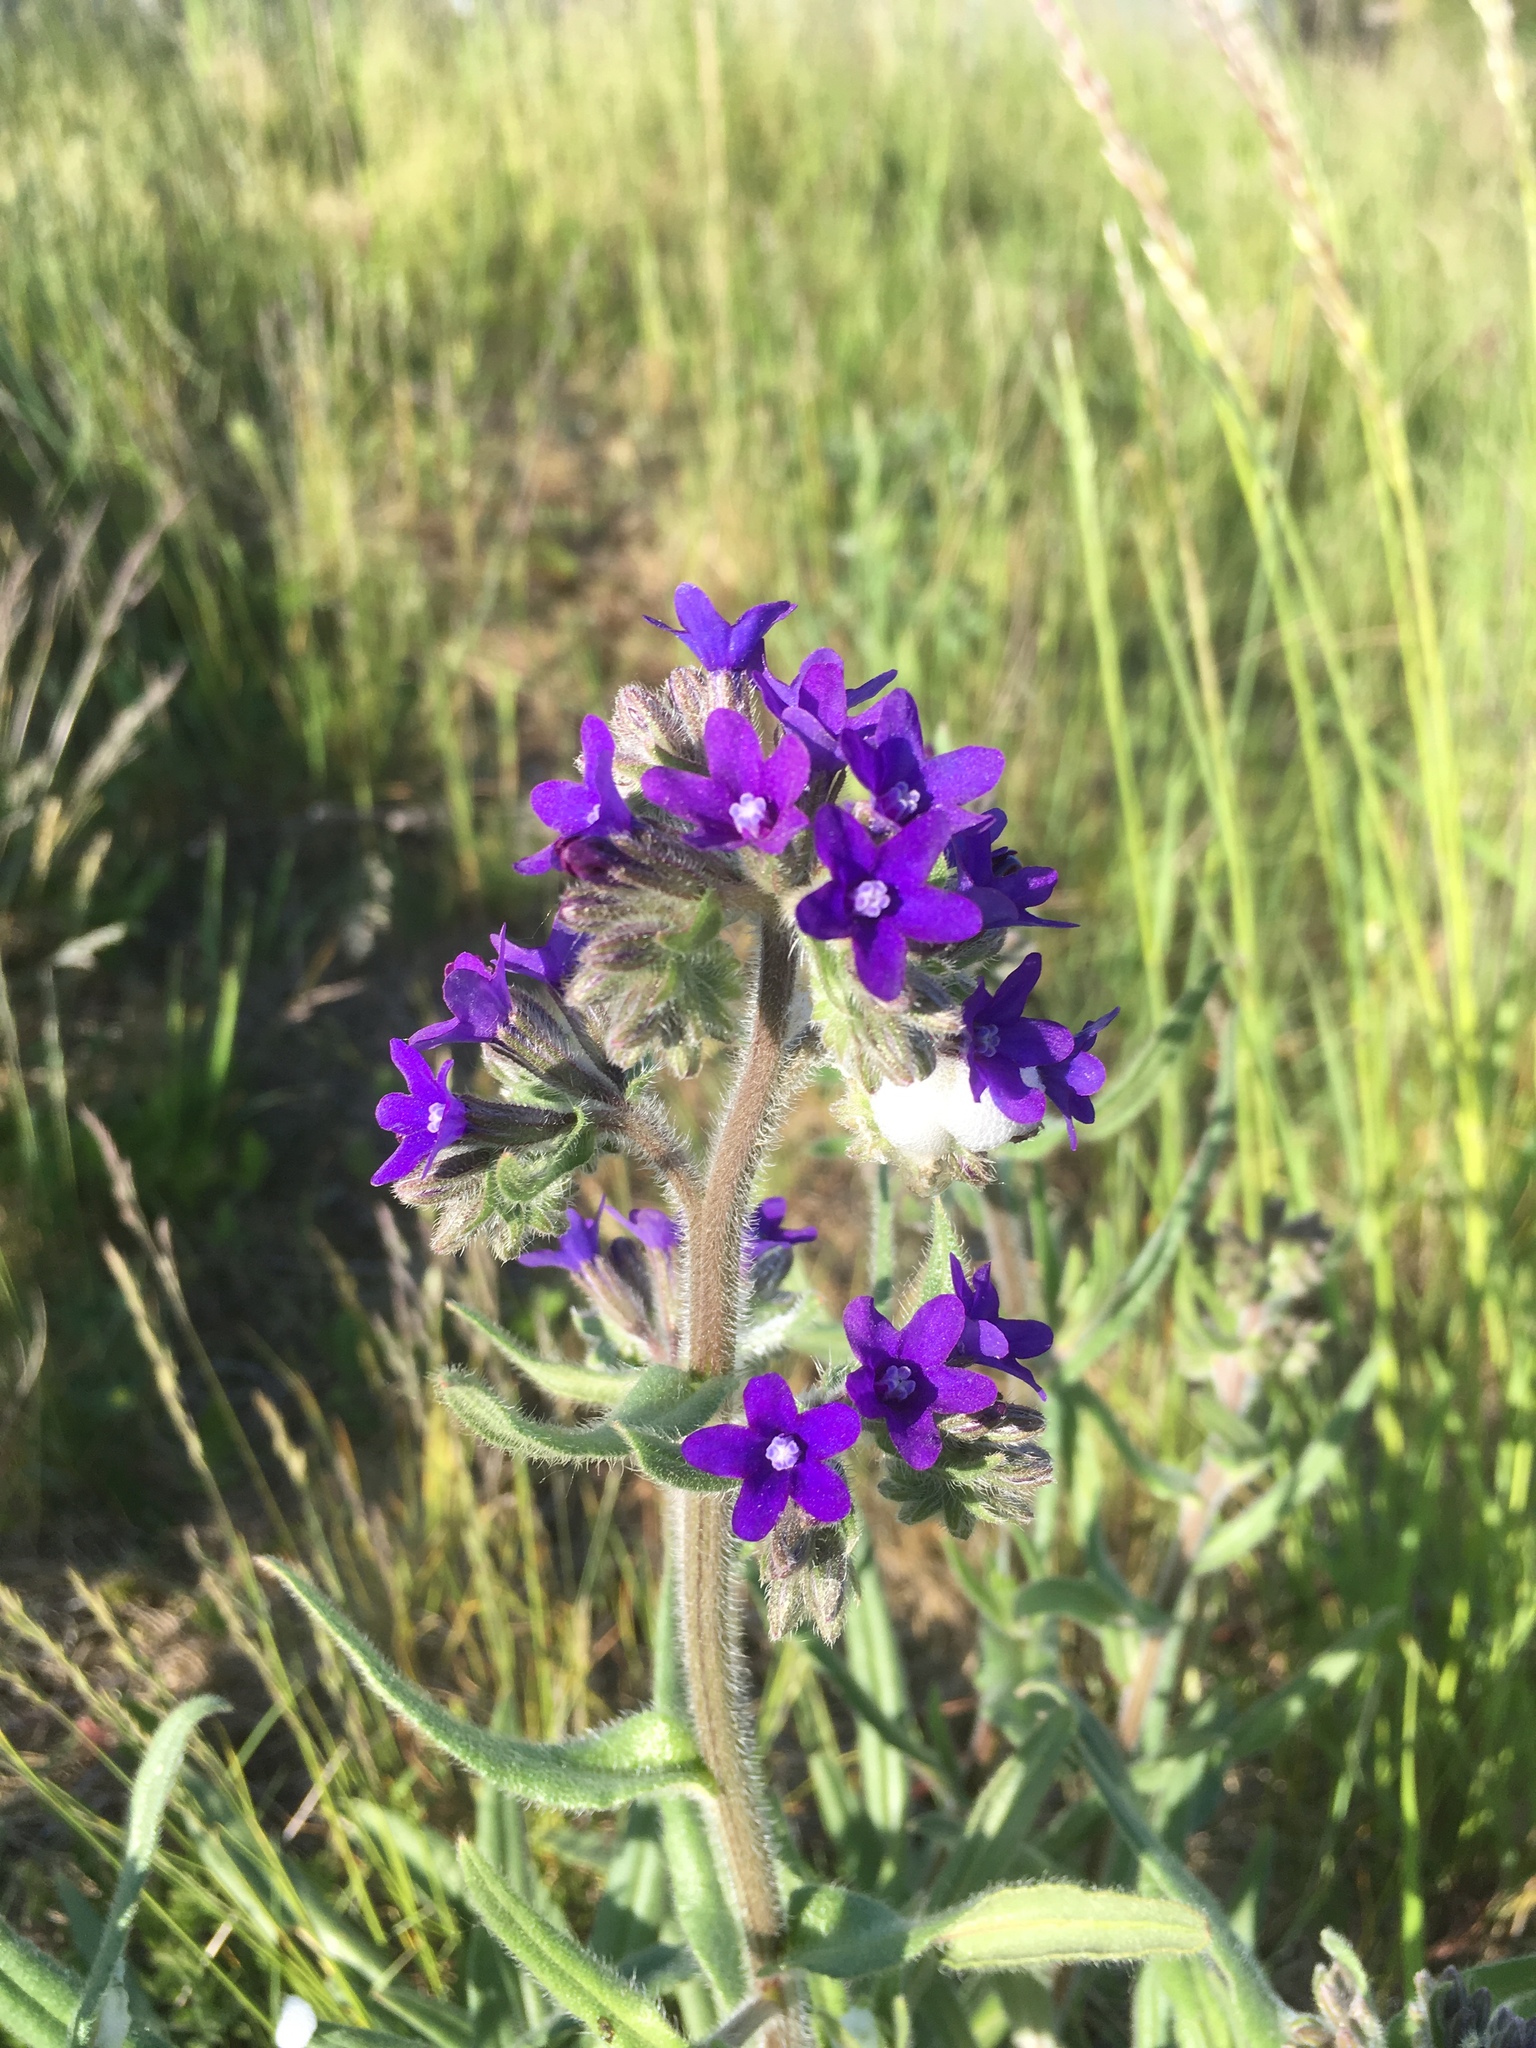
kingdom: Plantae
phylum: Tracheophyta
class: Magnoliopsida
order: Boraginales
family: Boraginaceae
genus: Anchusa
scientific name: Anchusa officinalis
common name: Alkanet
